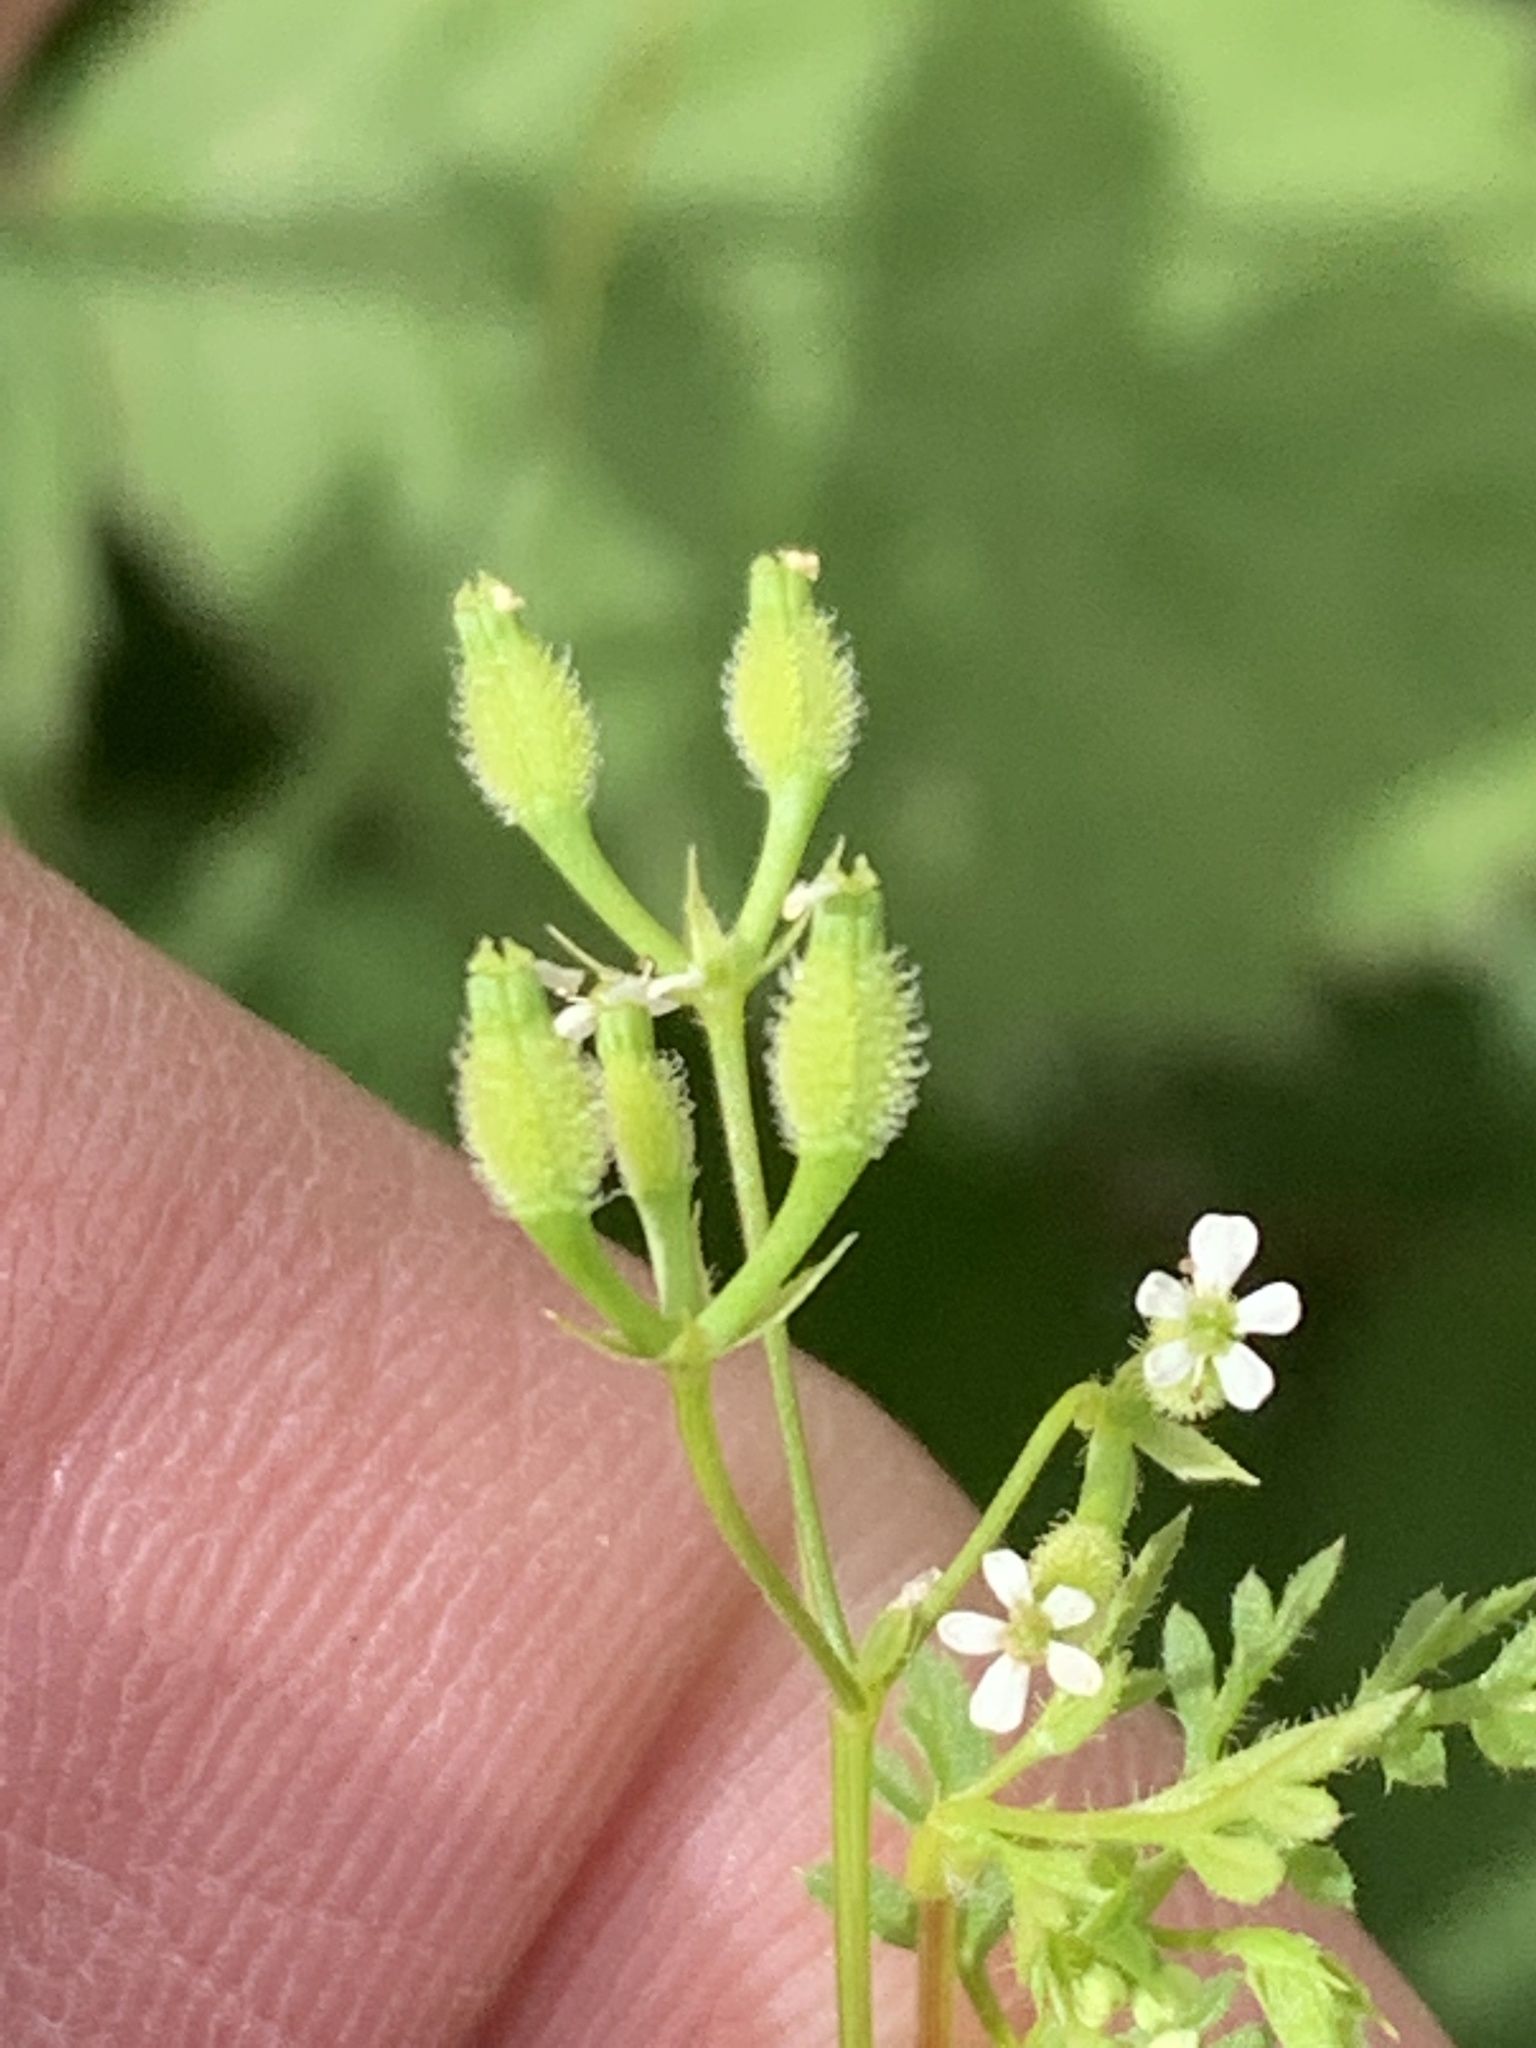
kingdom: Plantae
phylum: Tracheophyta
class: Magnoliopsida
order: Apiales
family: Apiaceae
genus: Anthriscus
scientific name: Anthriscus caucalis
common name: Bur chervil
